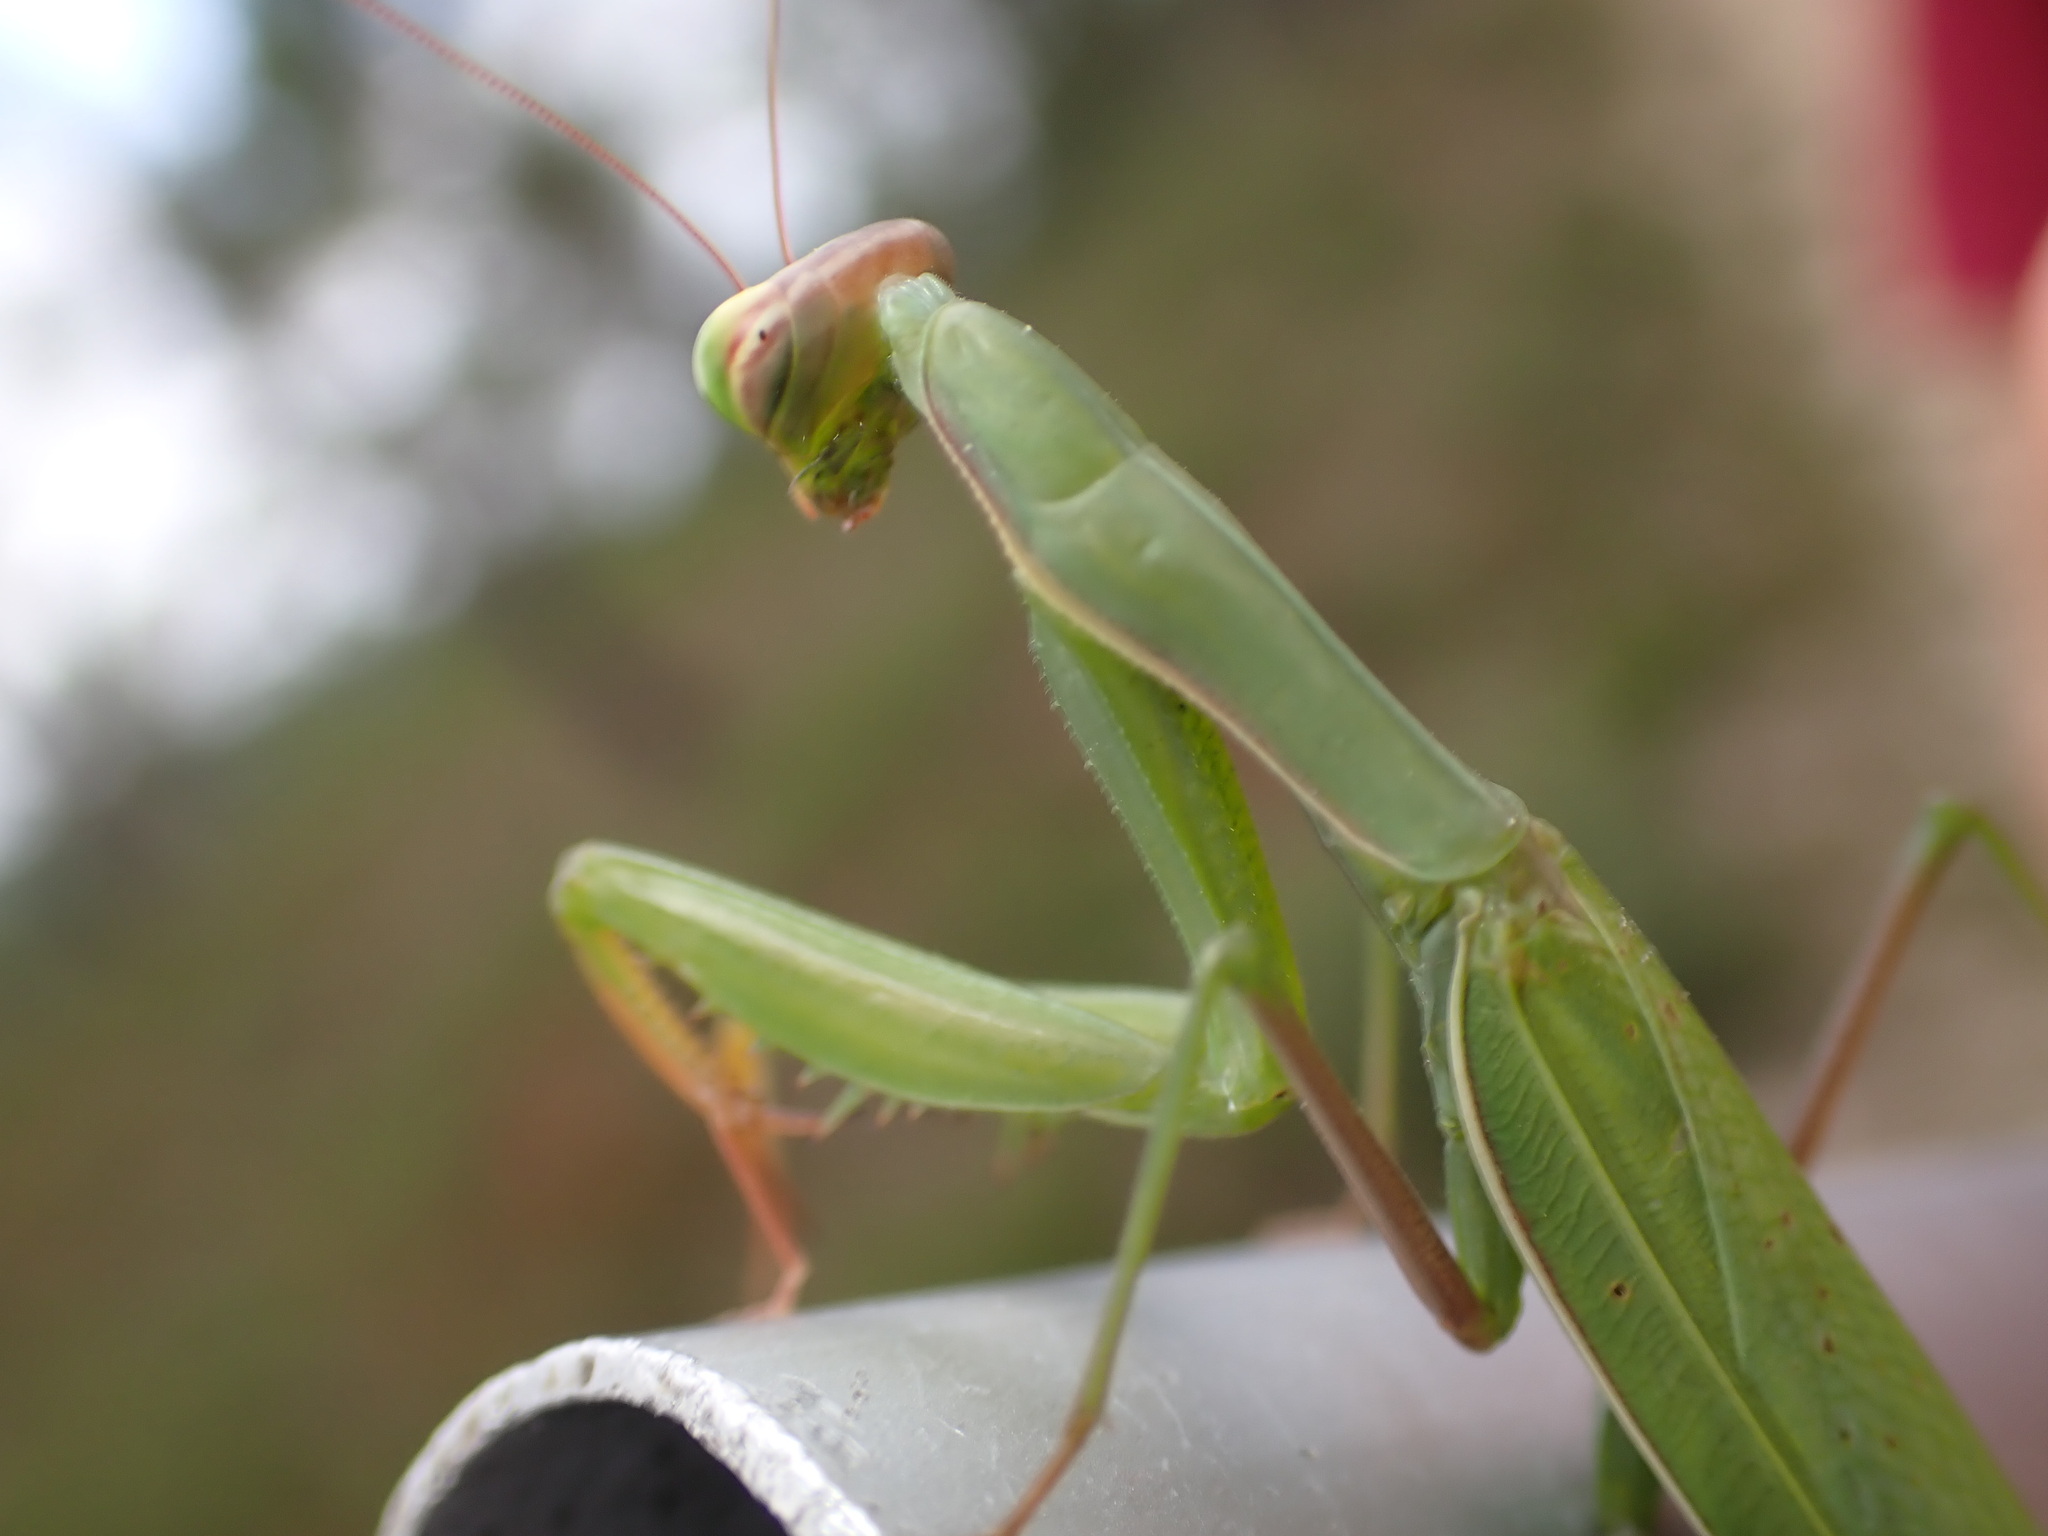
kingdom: Animalia
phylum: Arthropoda
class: Insecta
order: Mantodea
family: Mantidae
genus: Mantis
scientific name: Mantis religiosa
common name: Praying mantis
